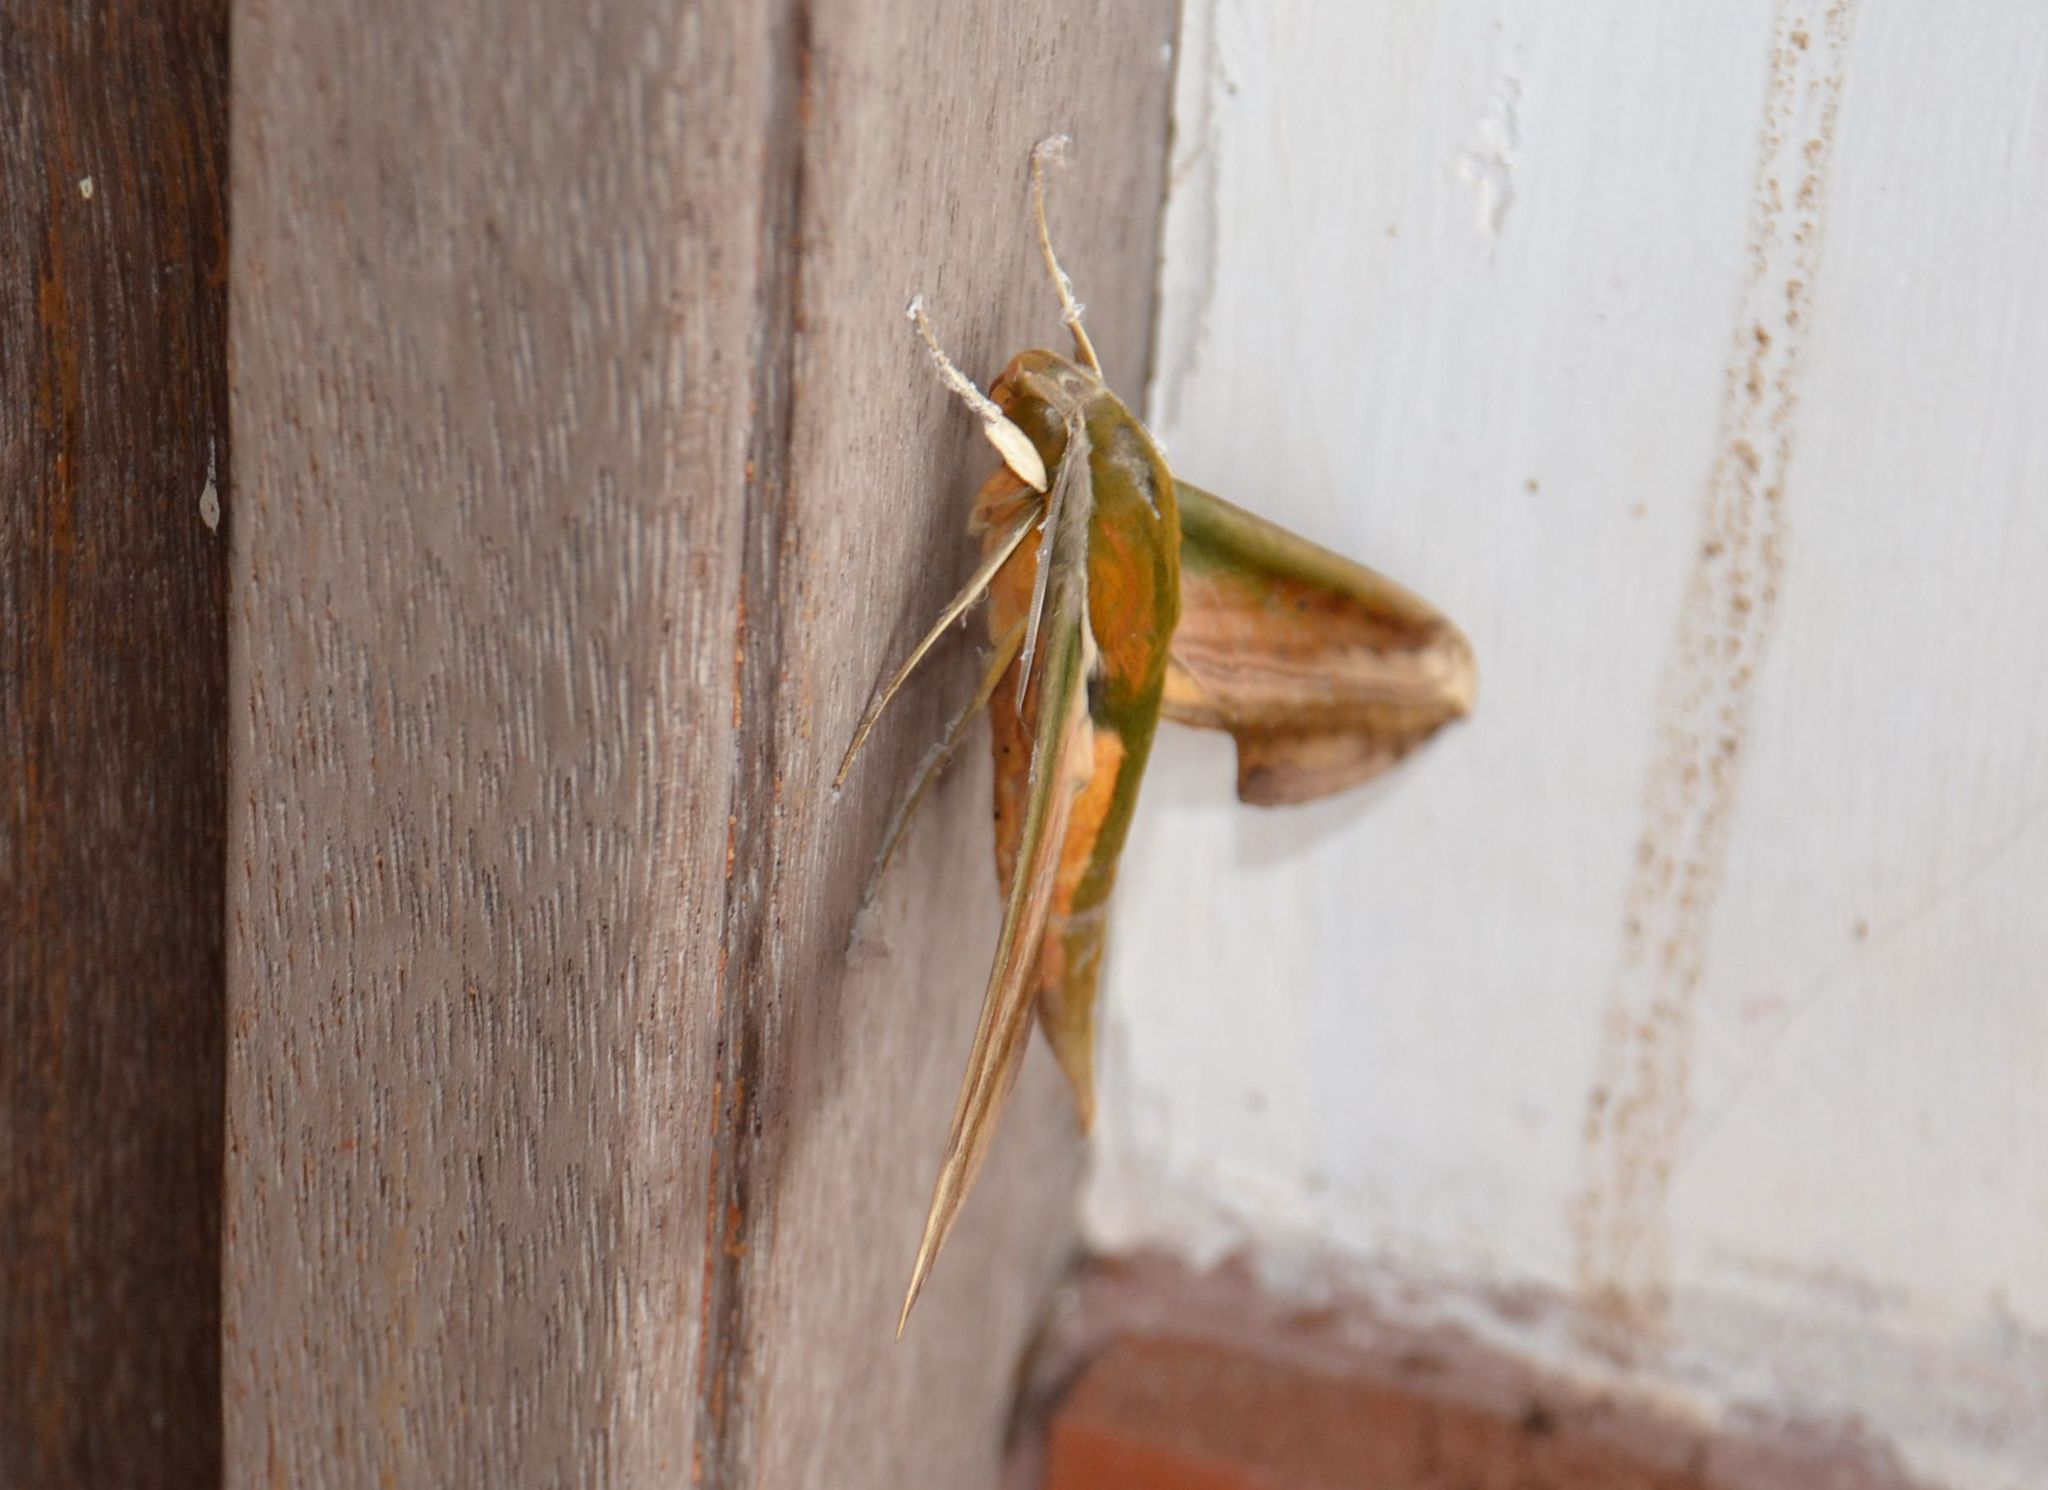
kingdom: Animalia
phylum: Arthropoda
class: Insecta
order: Lepidoptera
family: Sphingidae
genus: Theretra
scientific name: Theretra nessus
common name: Yam hawk moth
